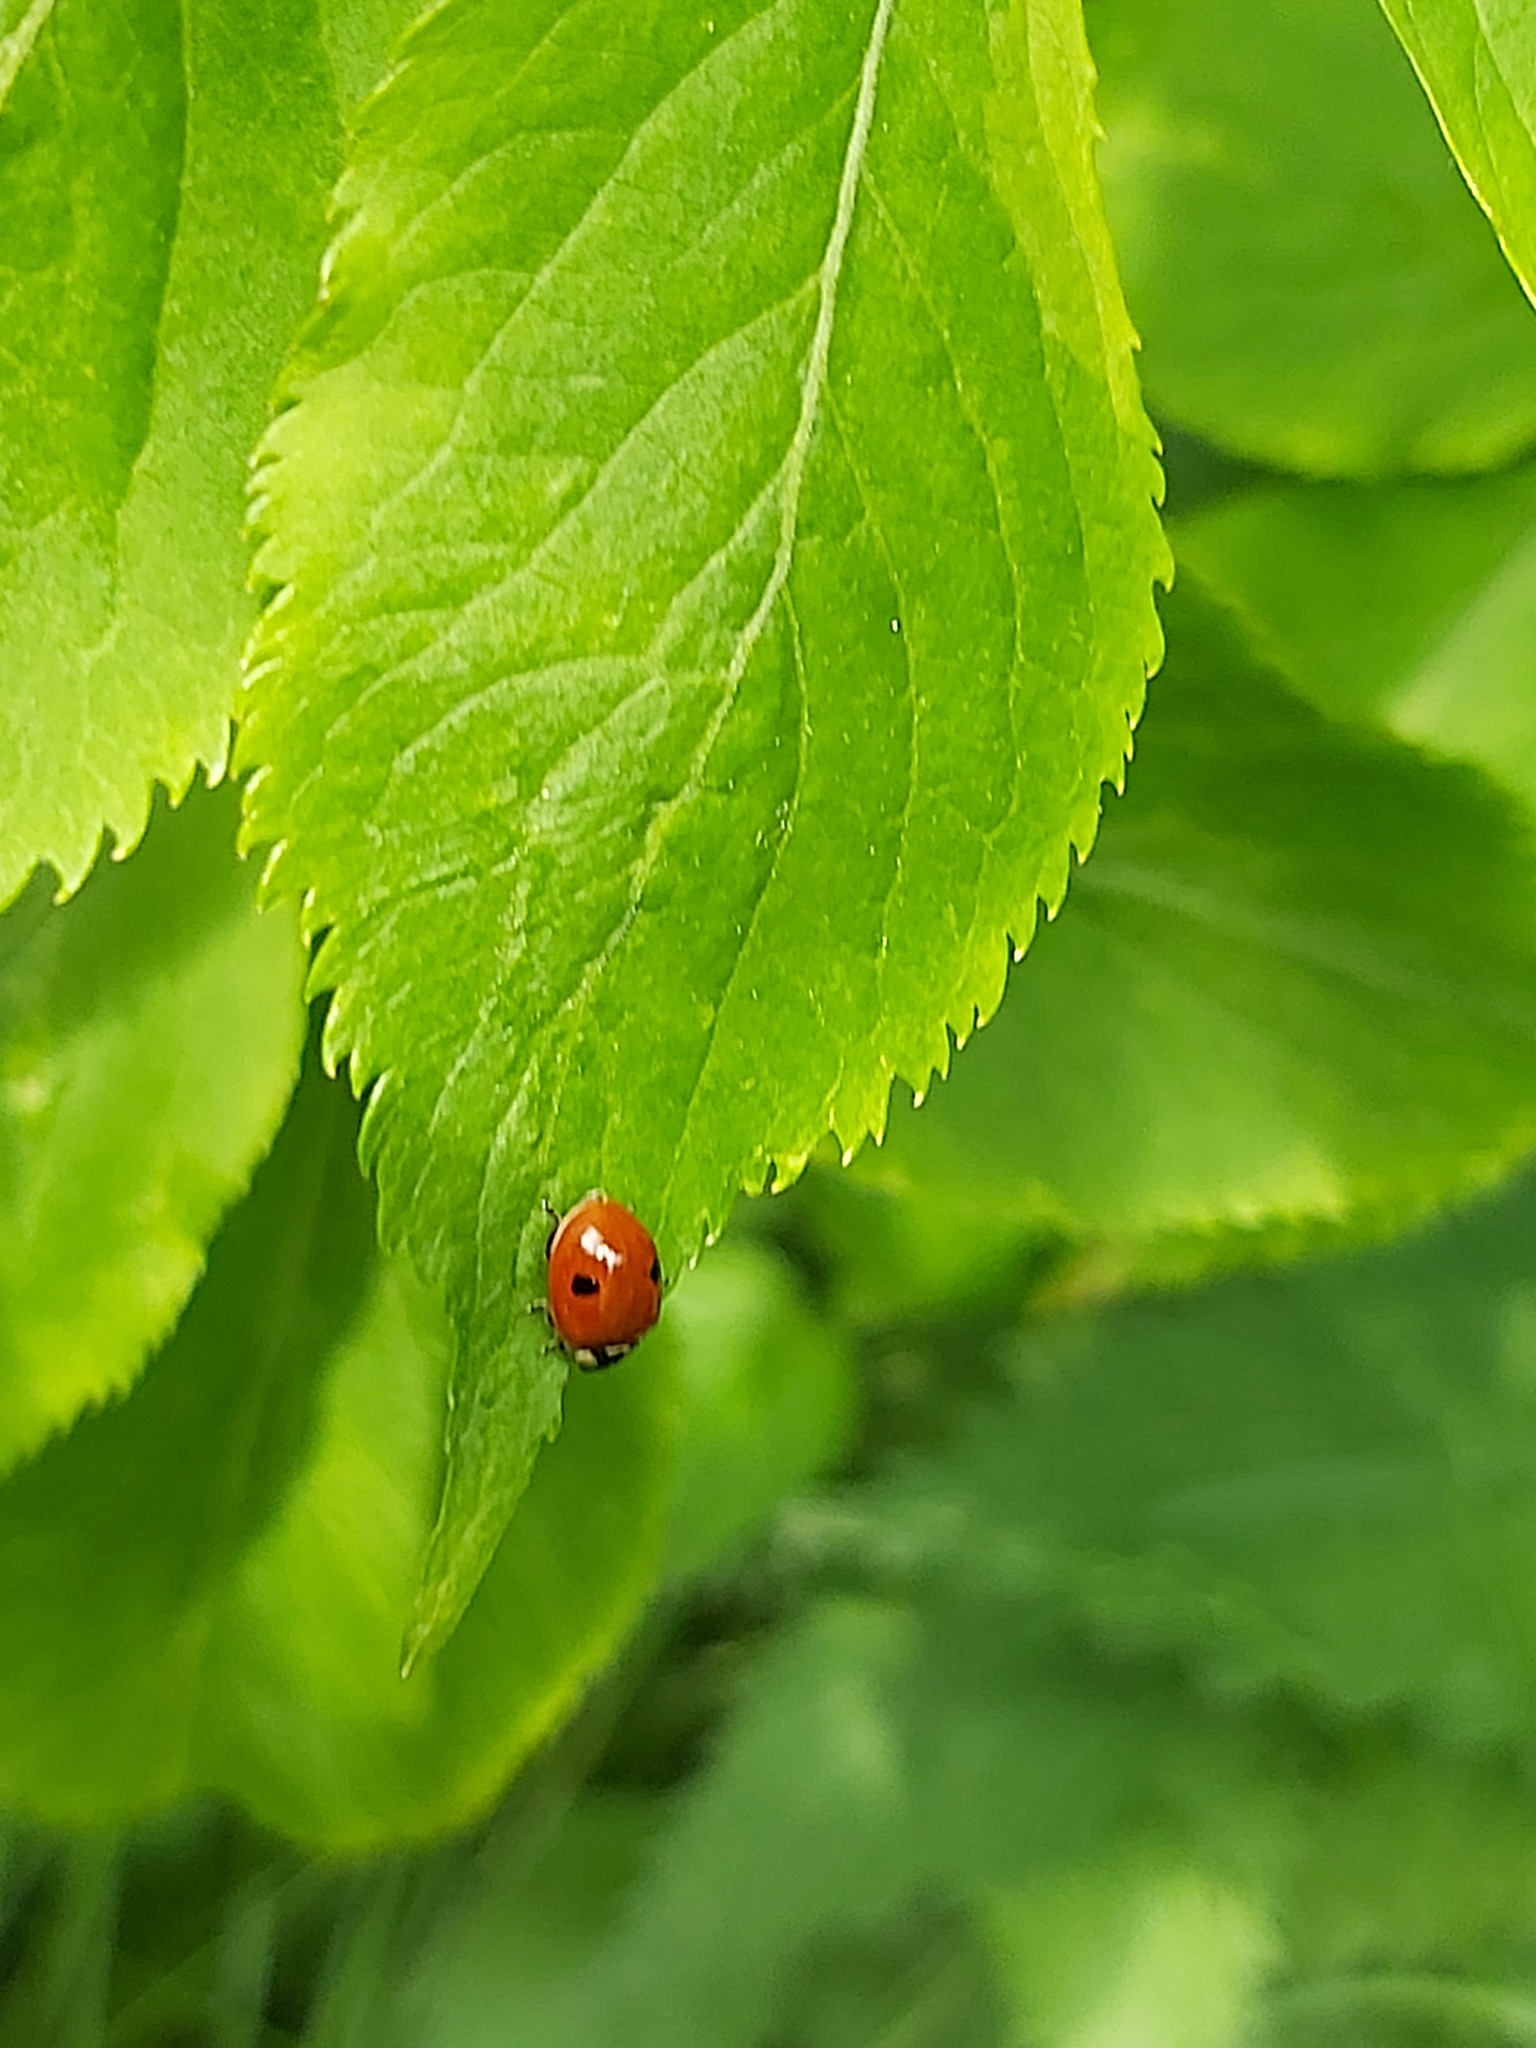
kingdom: Animalia
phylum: Arthropoda
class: Insecta
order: Coleoptera
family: Coccinellidae
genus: Adalia
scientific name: Adalia bipunctata
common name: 2-spot ladybird
